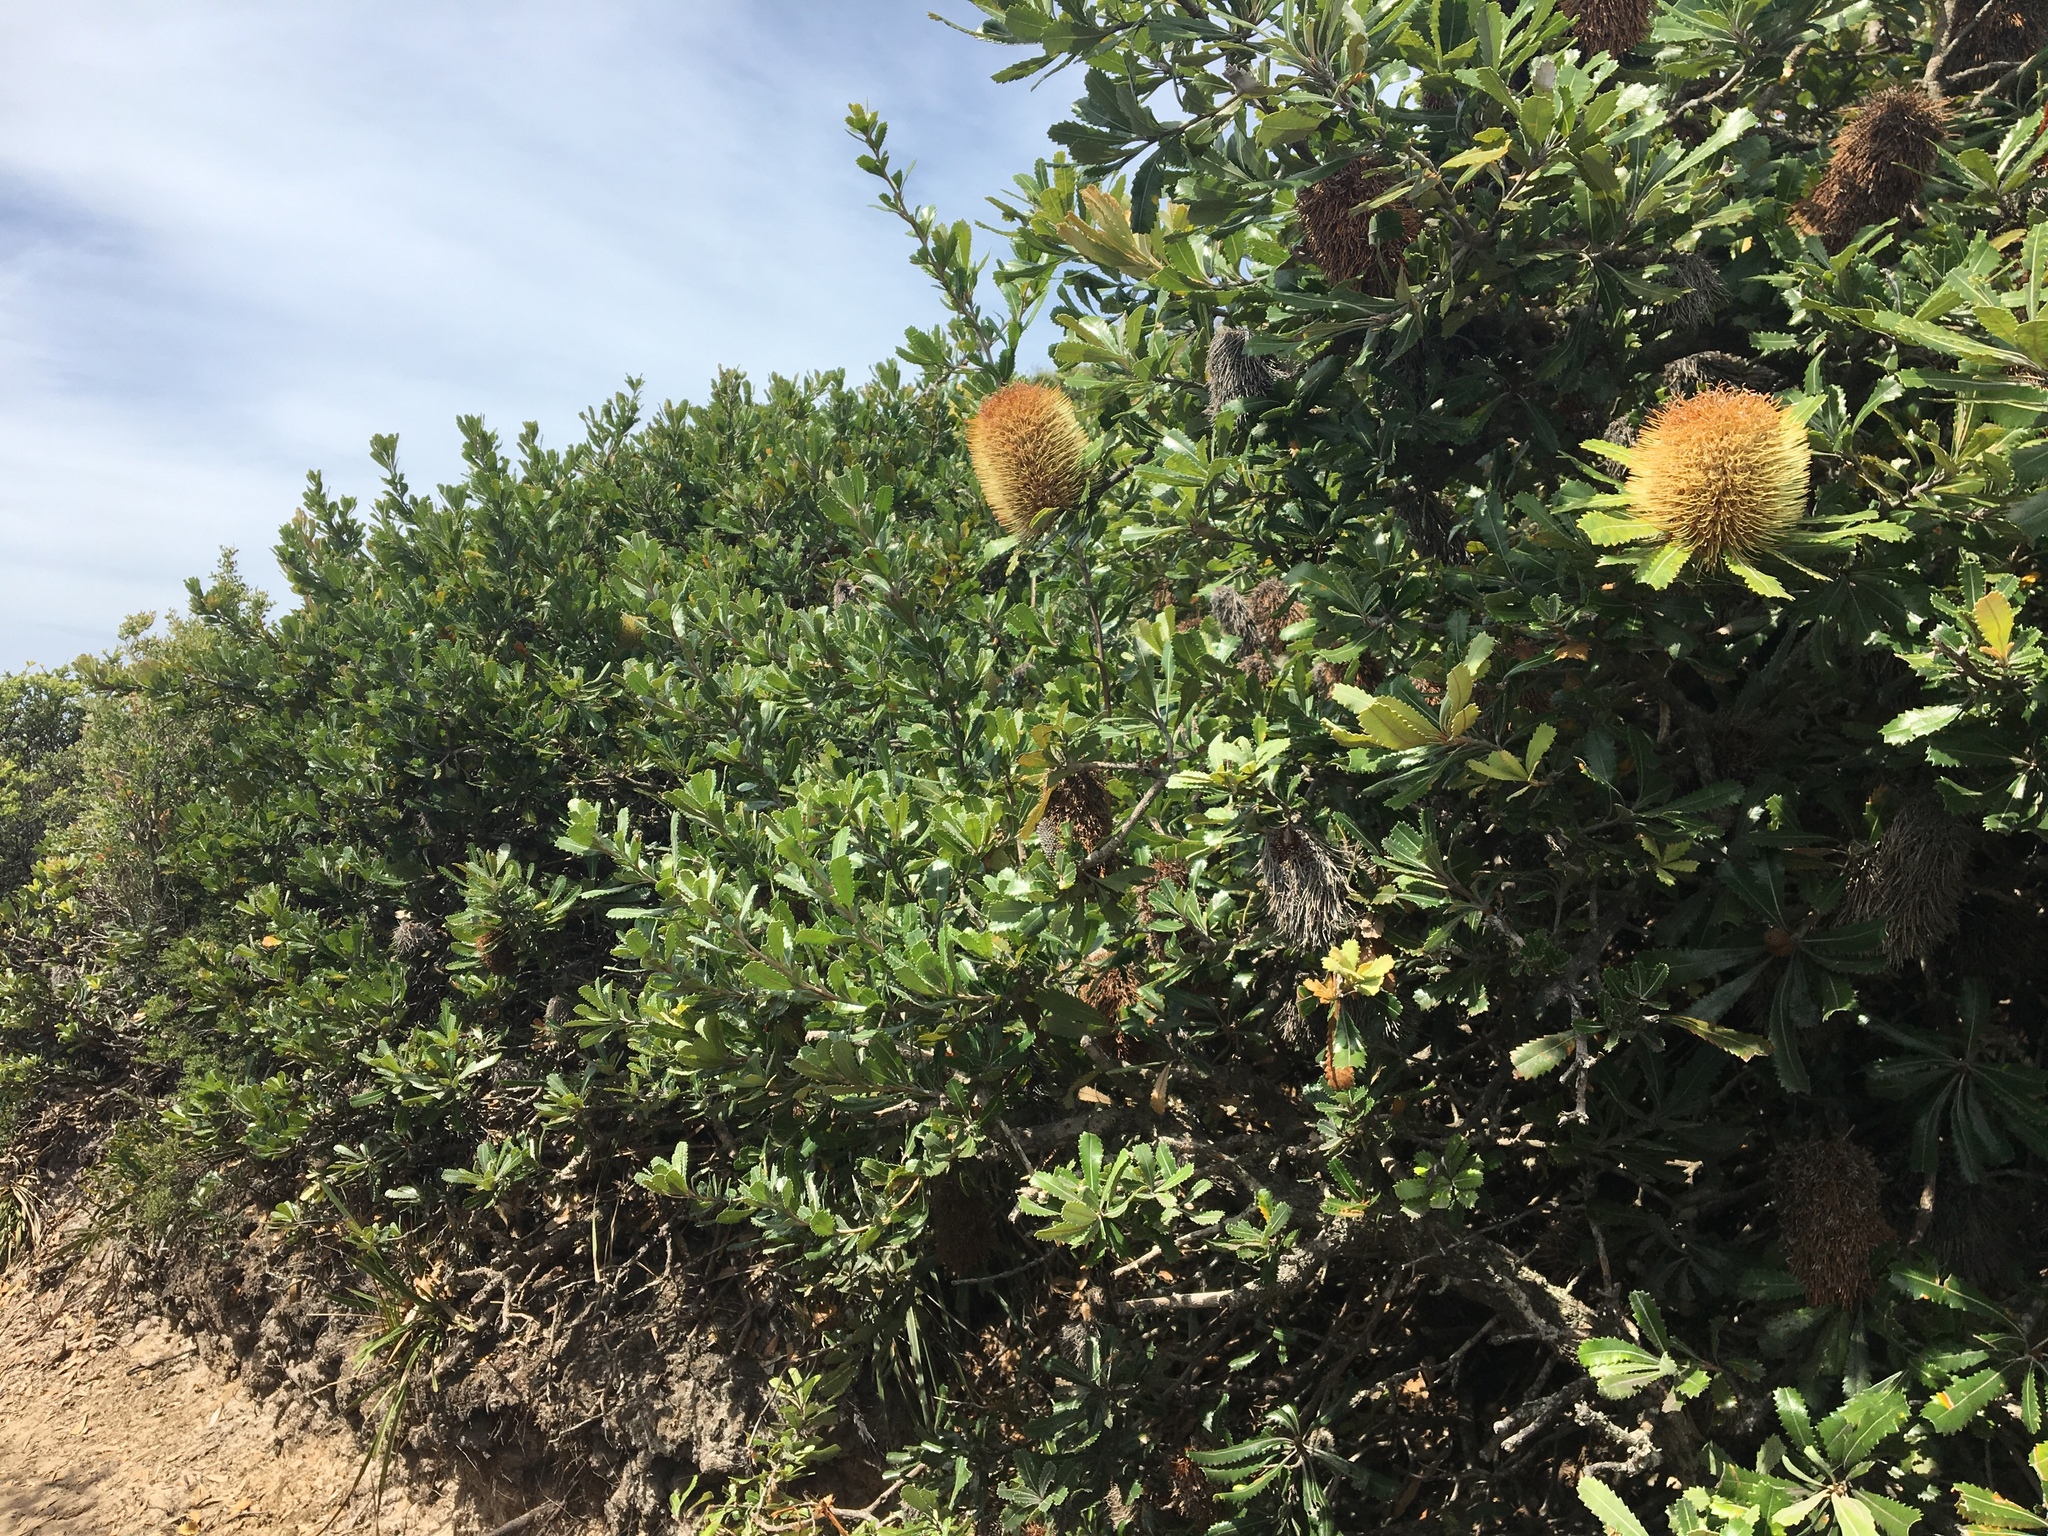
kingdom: Plantae
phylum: Tracheophyta
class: Magnoliopsida
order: Proteales
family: Proteaceae
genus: Banksia
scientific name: Banksia serrata
